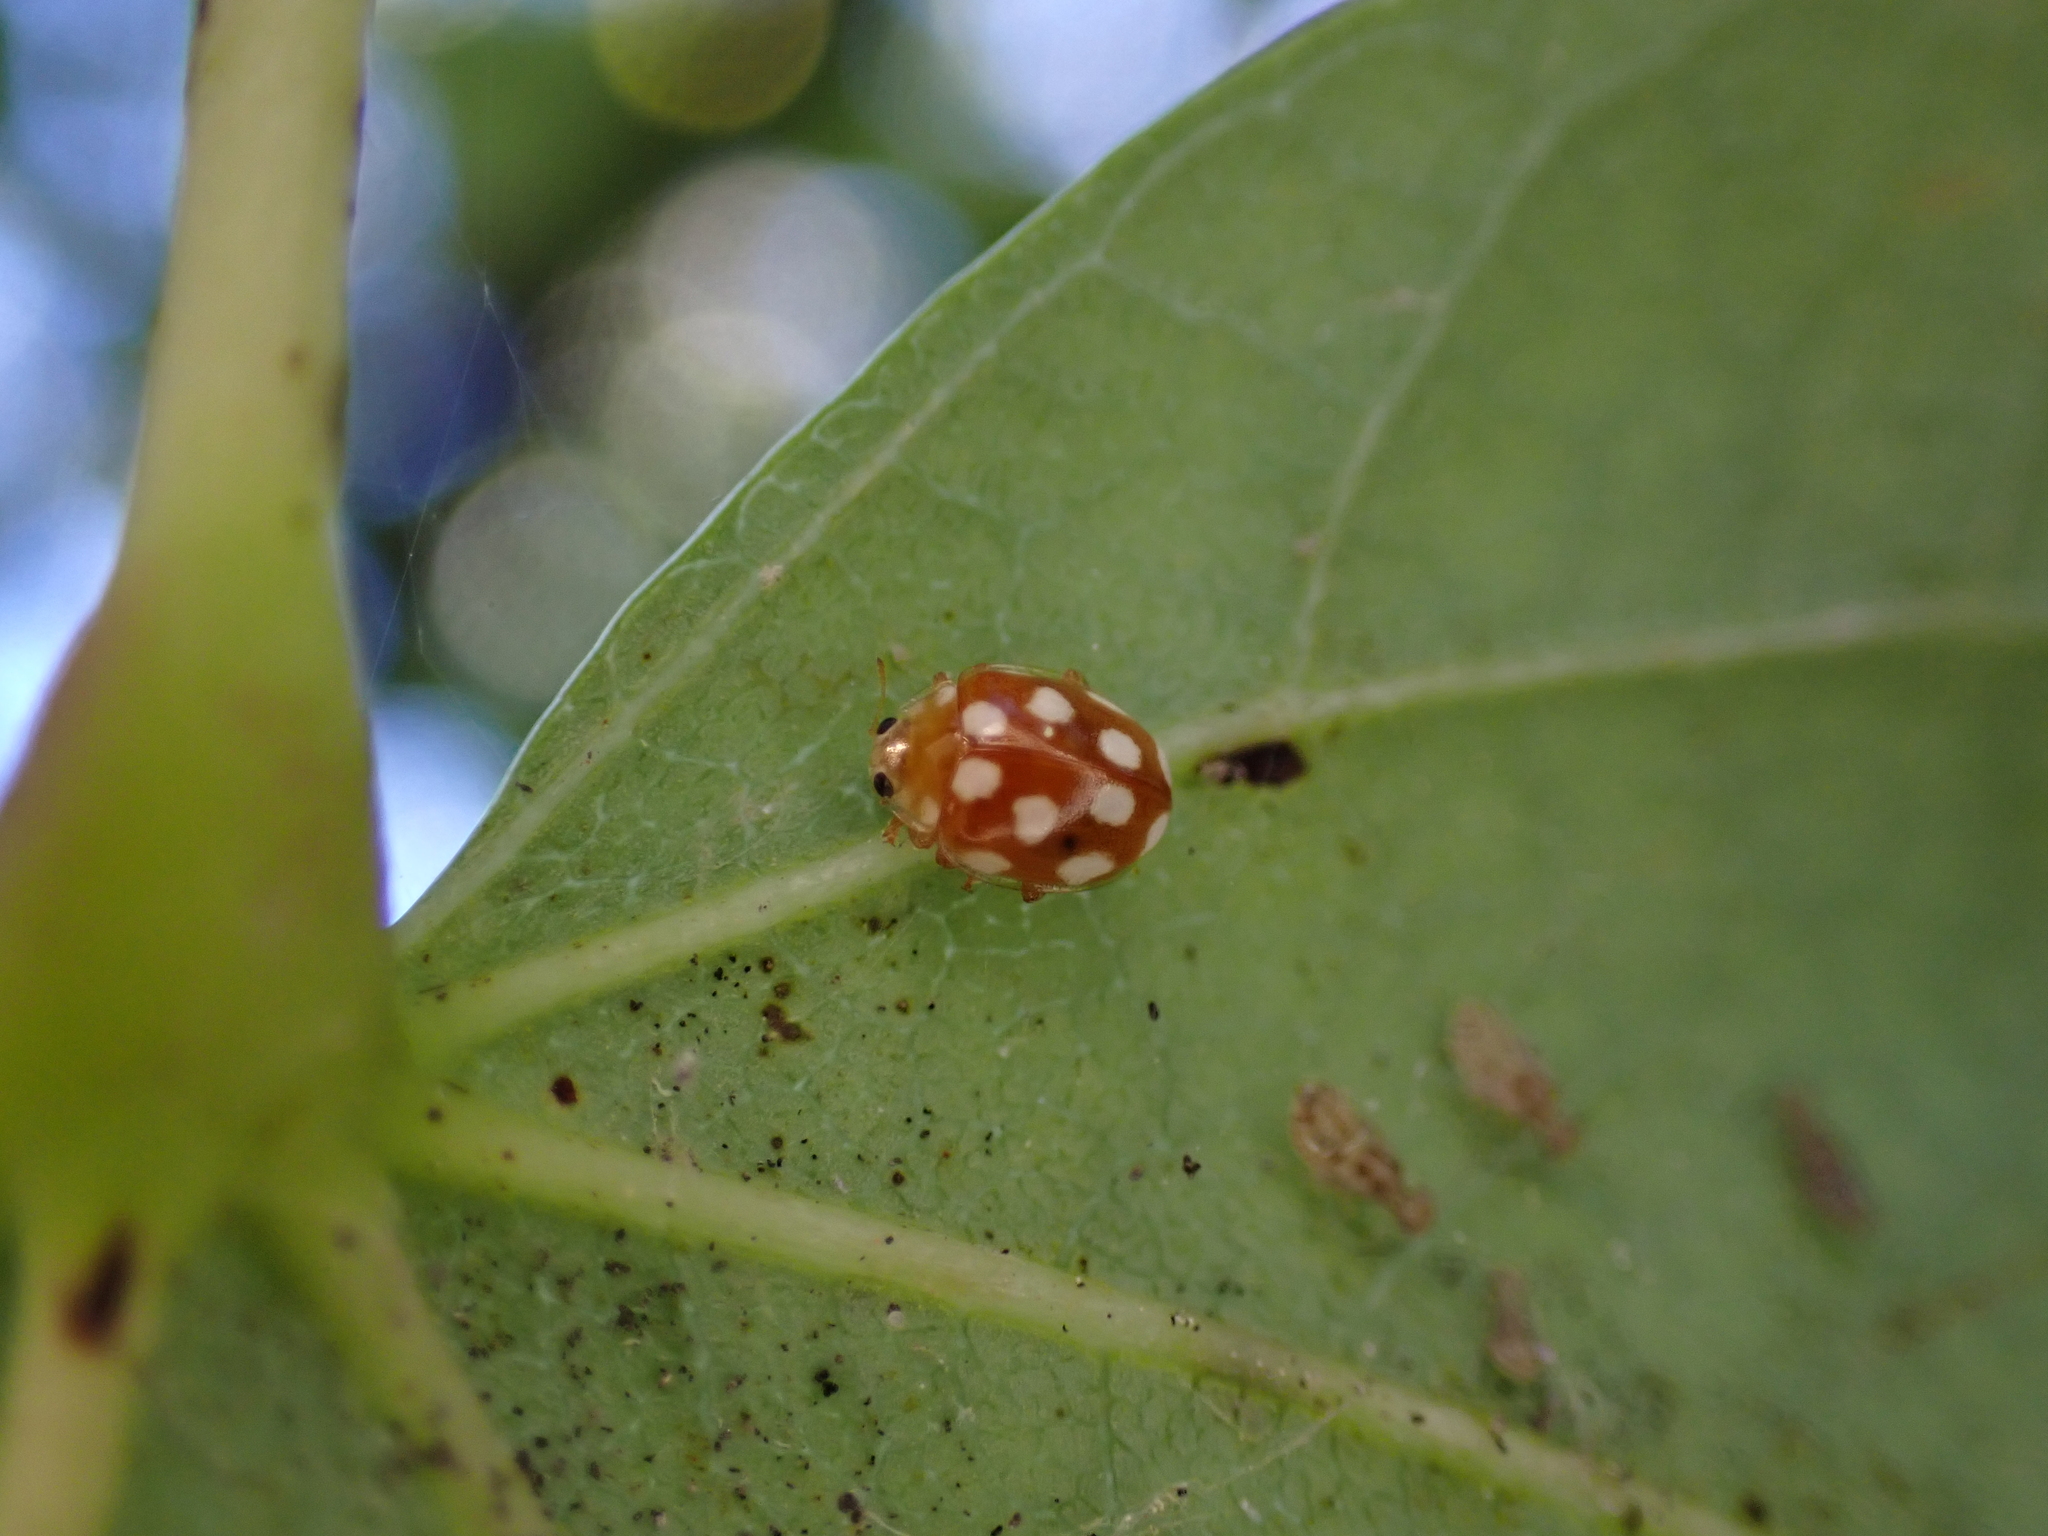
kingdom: Animalia
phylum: Arthropoda
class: Insecta
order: Coleoptera
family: Coccinellidae
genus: Vibidia
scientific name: Vibidia duodecimguttata
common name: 12-spot ladybird
